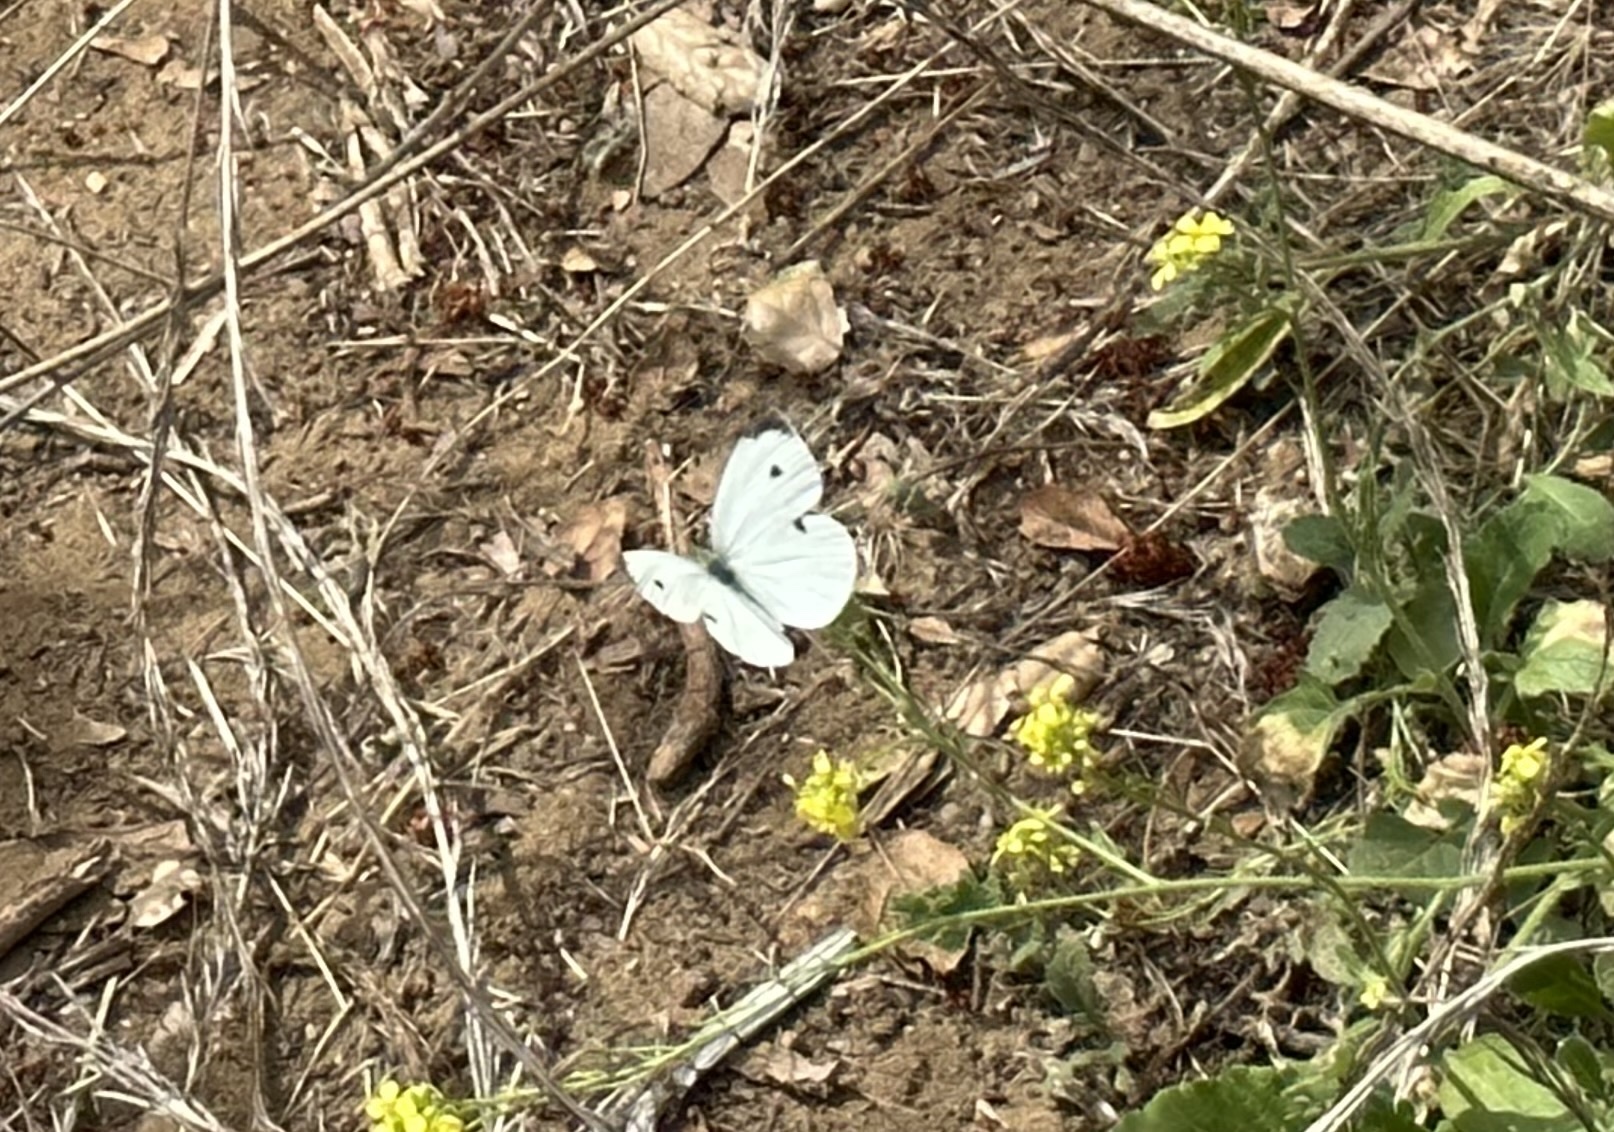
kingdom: Animalia
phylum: Arthropoda
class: Insecta
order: Lepidoptera
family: Pieridae
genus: Pieris
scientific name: Pieris rapae
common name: Small white
